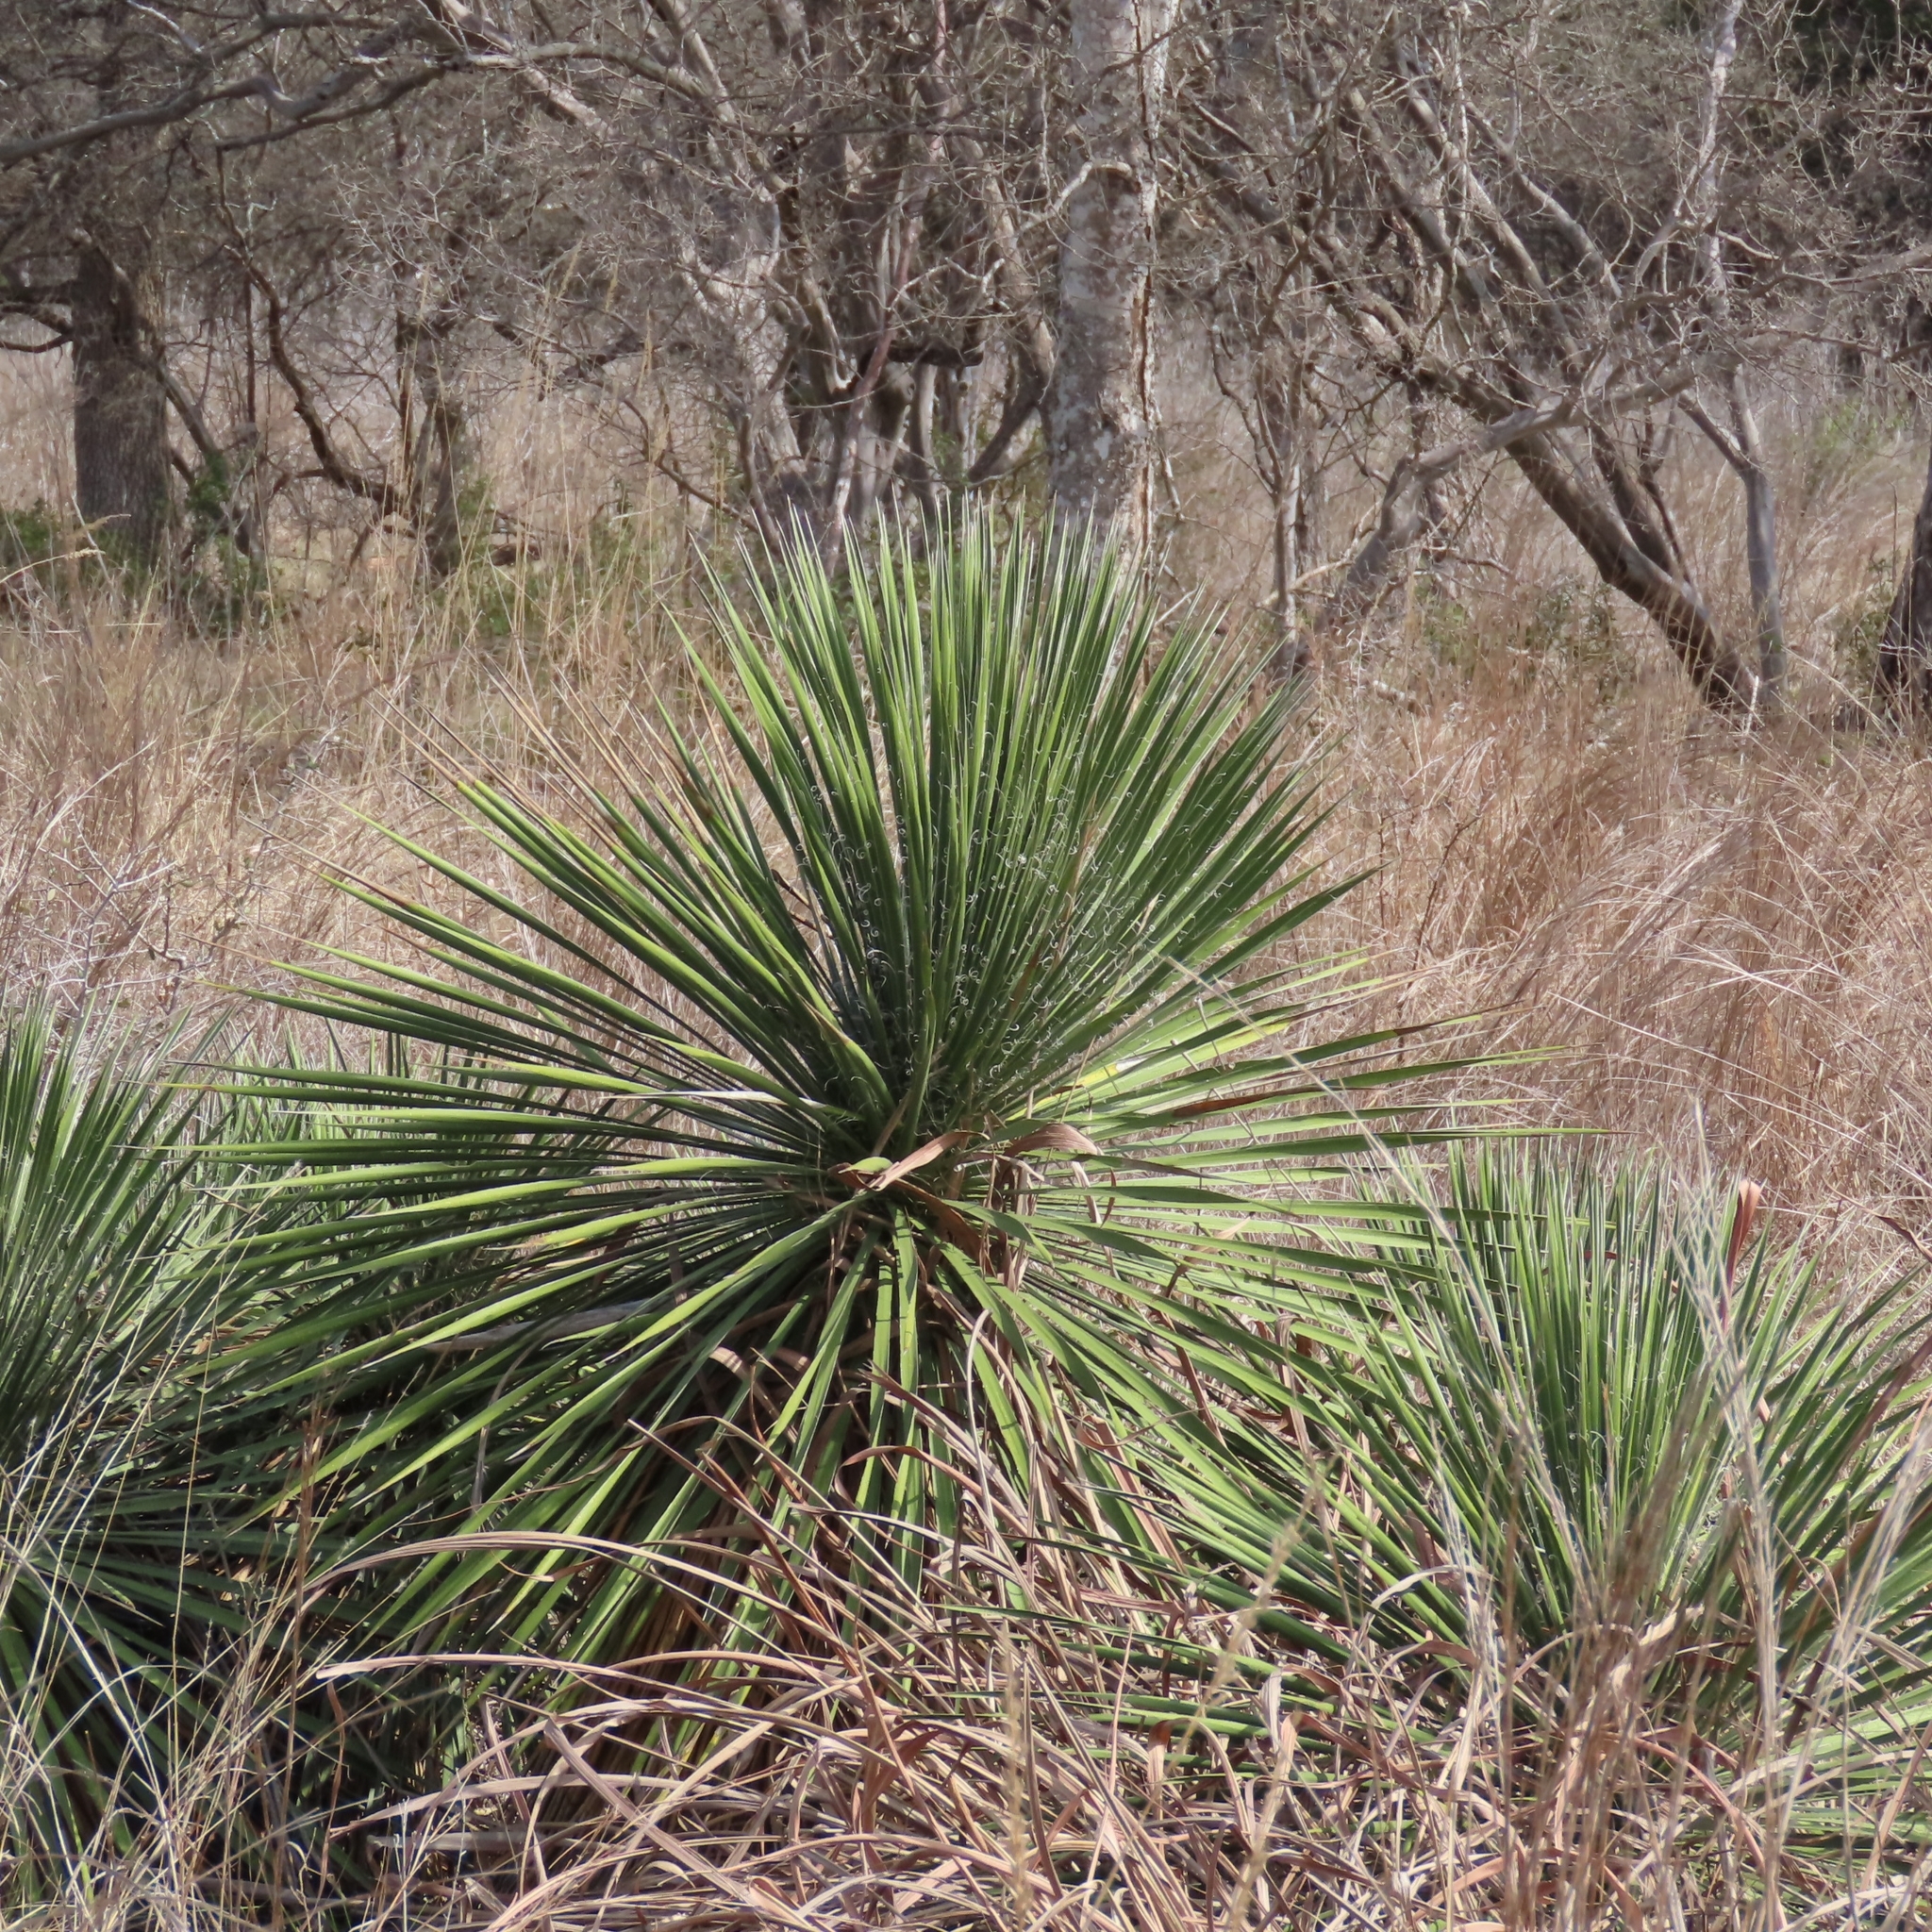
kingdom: Plantae
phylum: Tracheophyta
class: Liliopsida
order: Asparagales
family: Asparagaceae
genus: Yucca
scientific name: Yucca constricta
